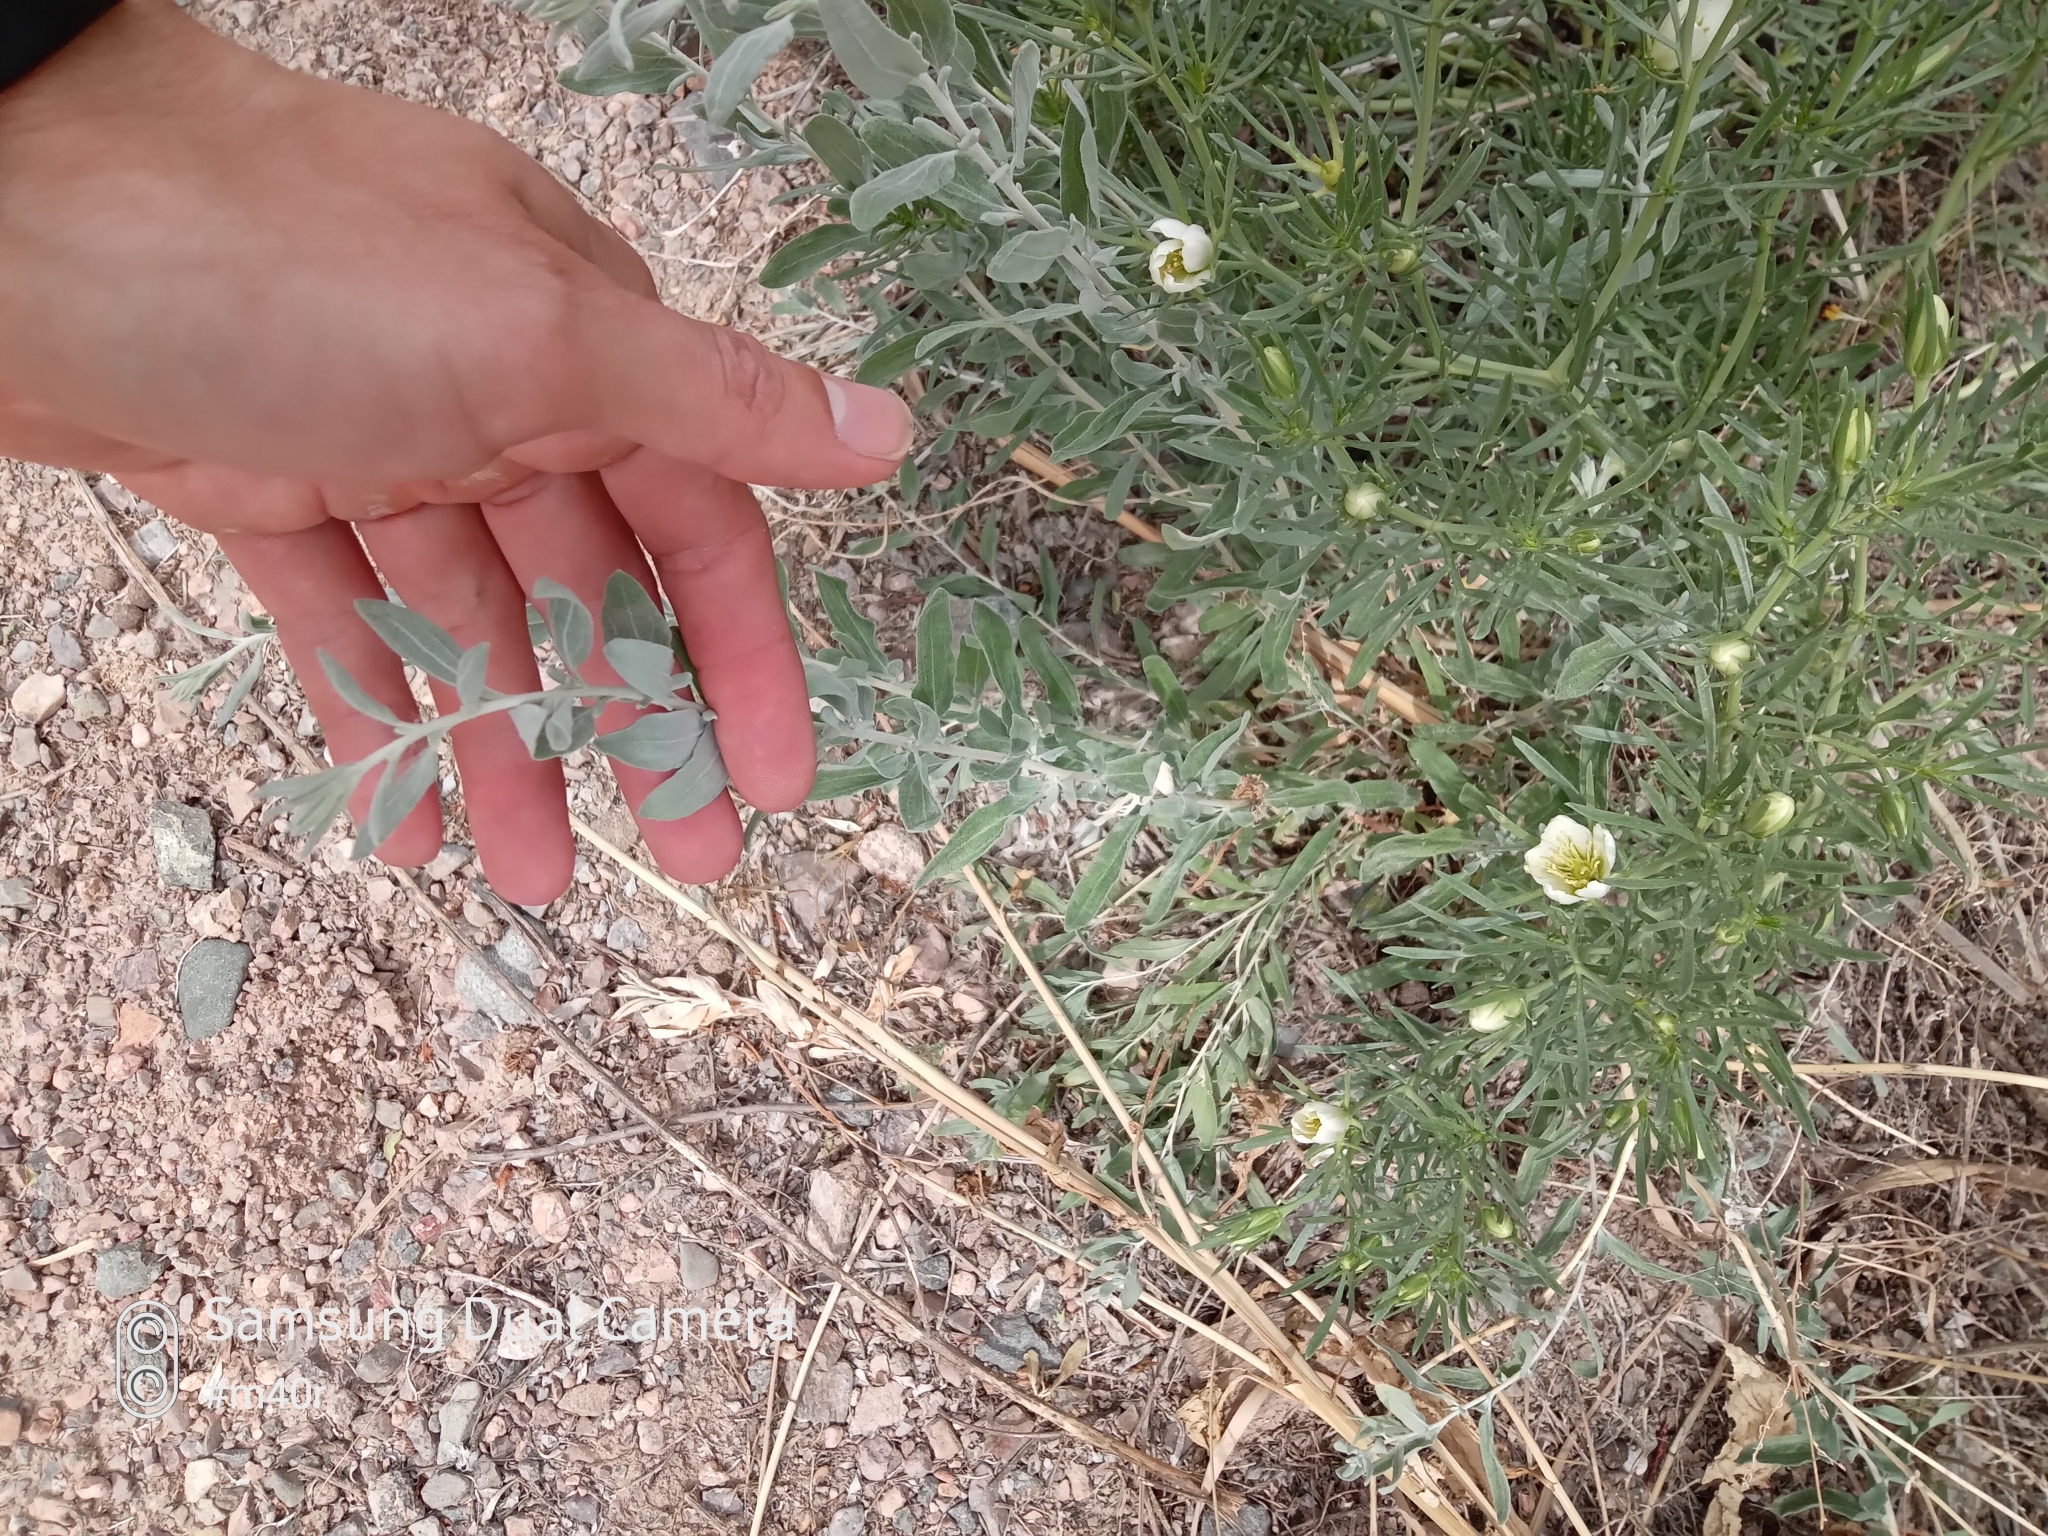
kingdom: Plantae
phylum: Tracheophyta
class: Magnoliopsida
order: Sapindales
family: Tetradiclidaceae
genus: Peganum
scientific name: Peganum harmala
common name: Harmal peganum
